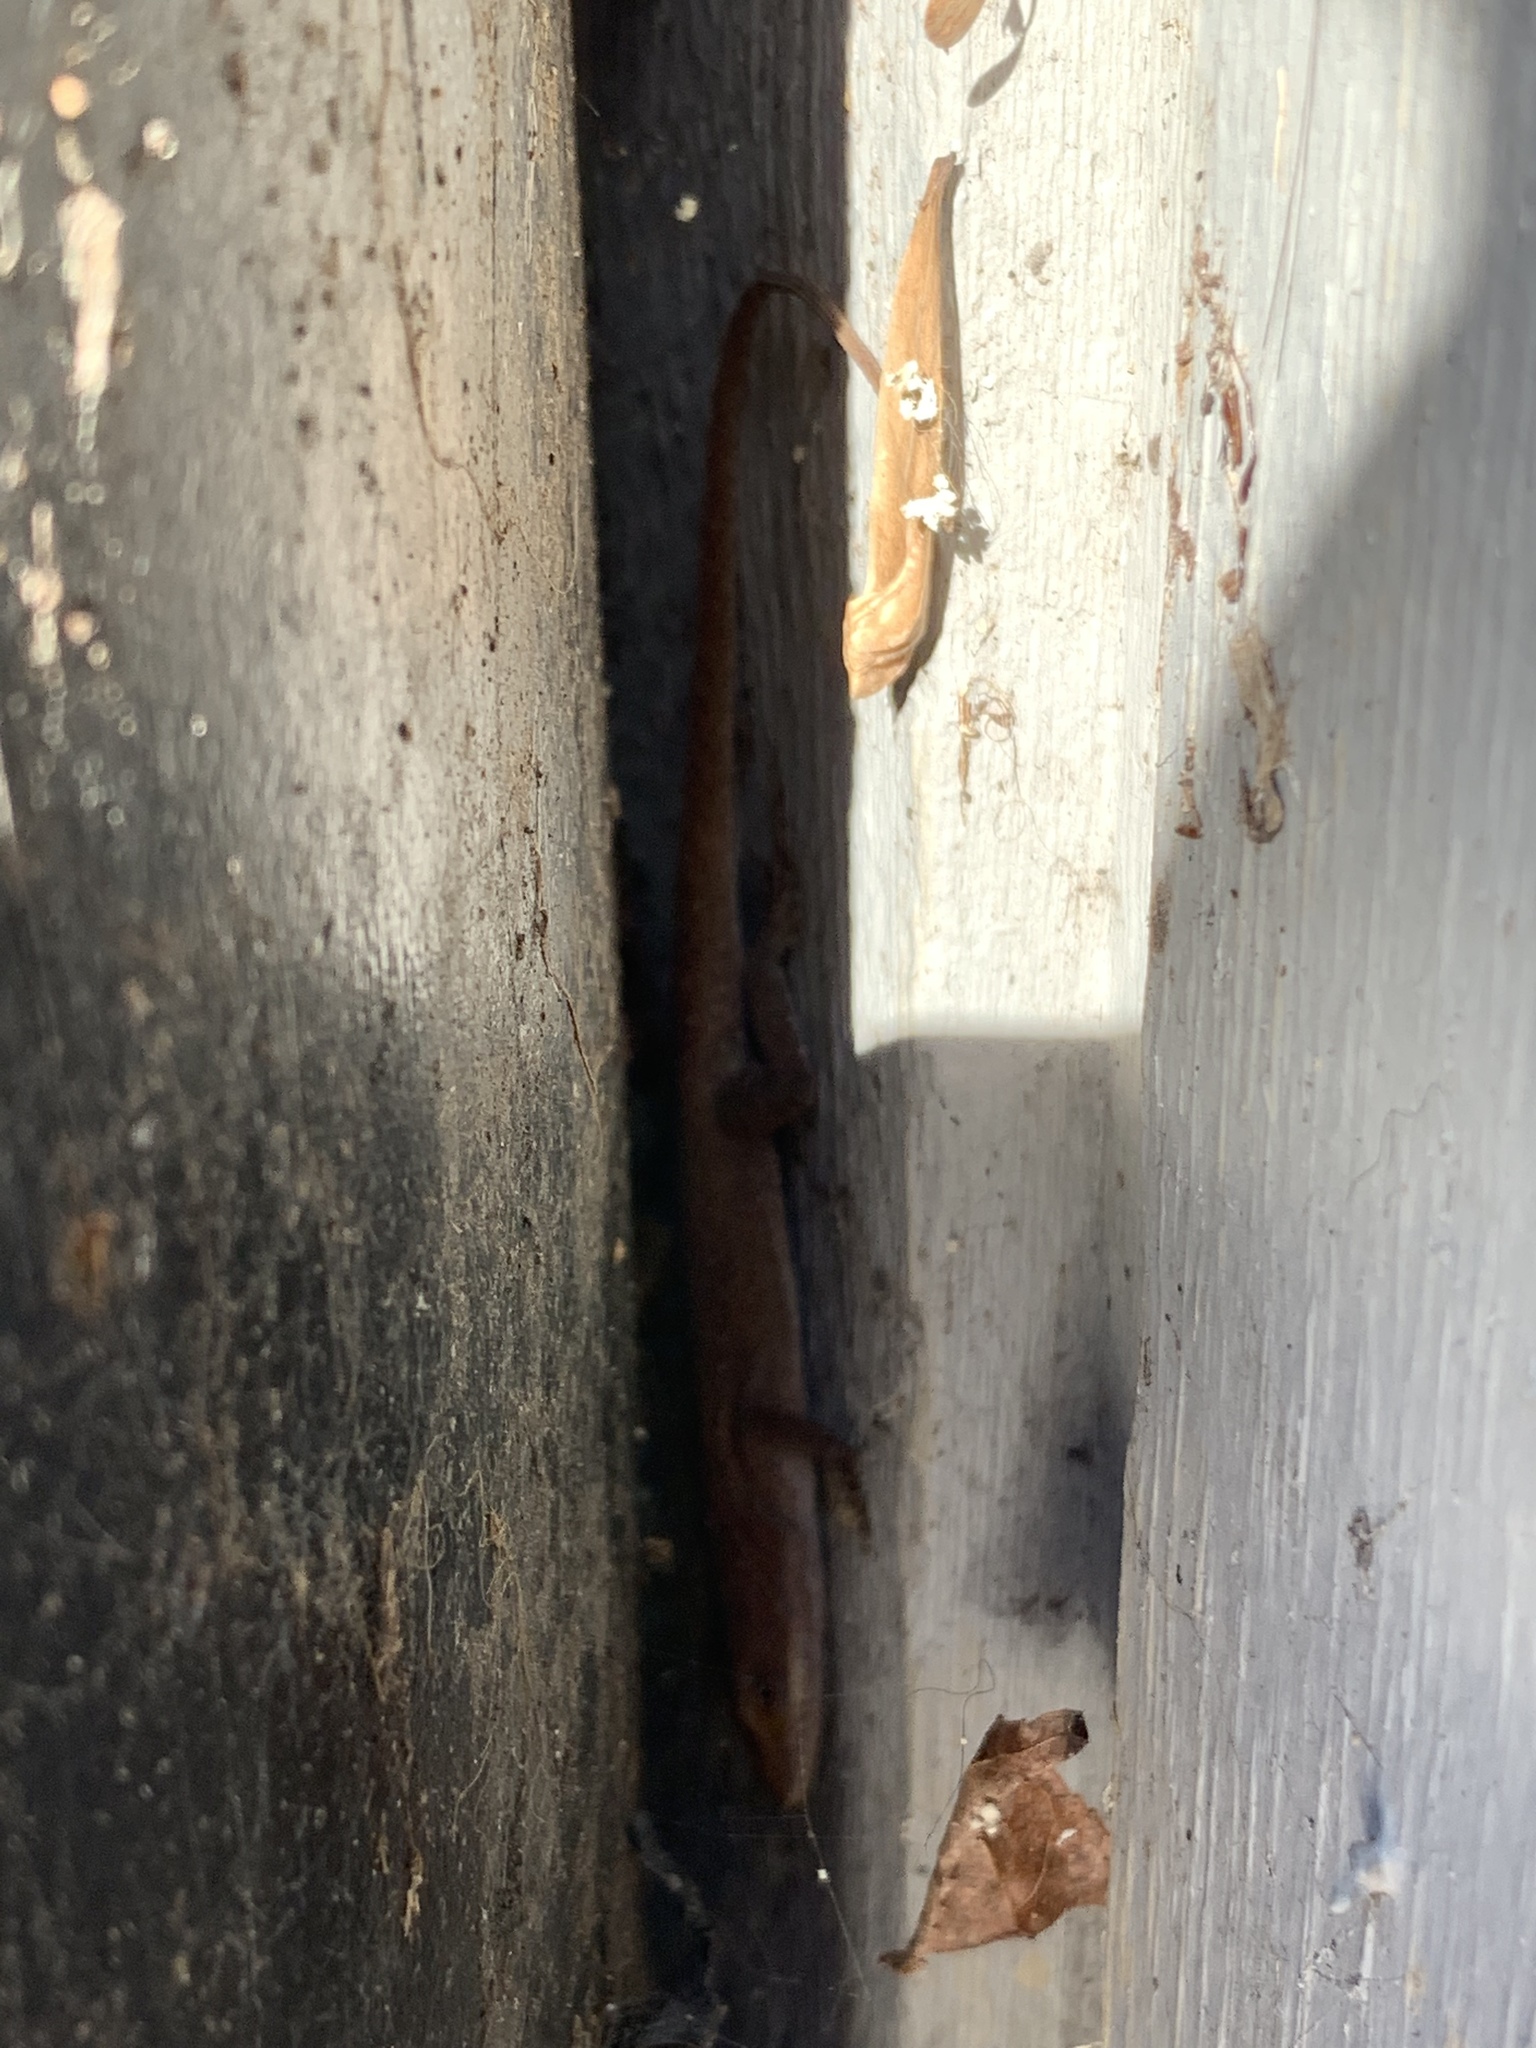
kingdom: Animalia
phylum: Chordata
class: Squamata
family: Dactyloidae
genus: Anolis
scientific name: Anolis carolinensis
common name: Green anole
